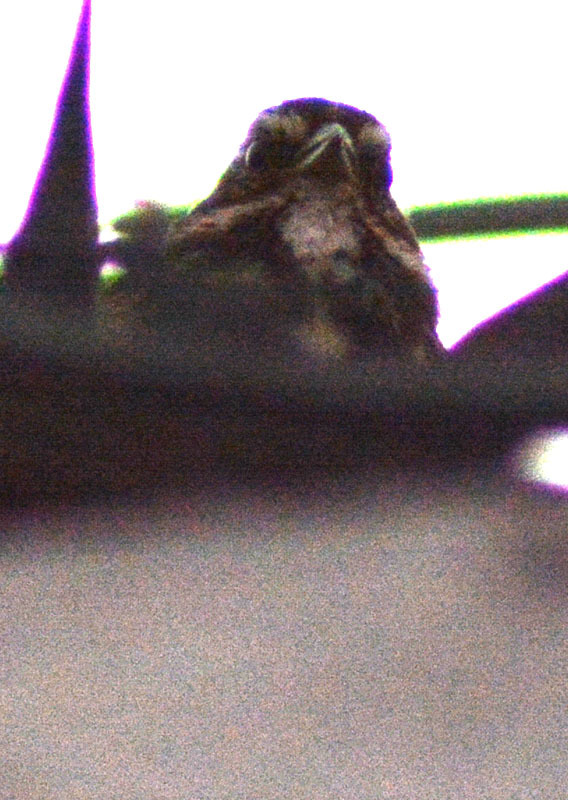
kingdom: Animalia
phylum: Chordata
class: Aves
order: Passeriformes
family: Passerellidae
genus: Melospiza
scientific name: Melospiza melodia
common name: Song sparrow
